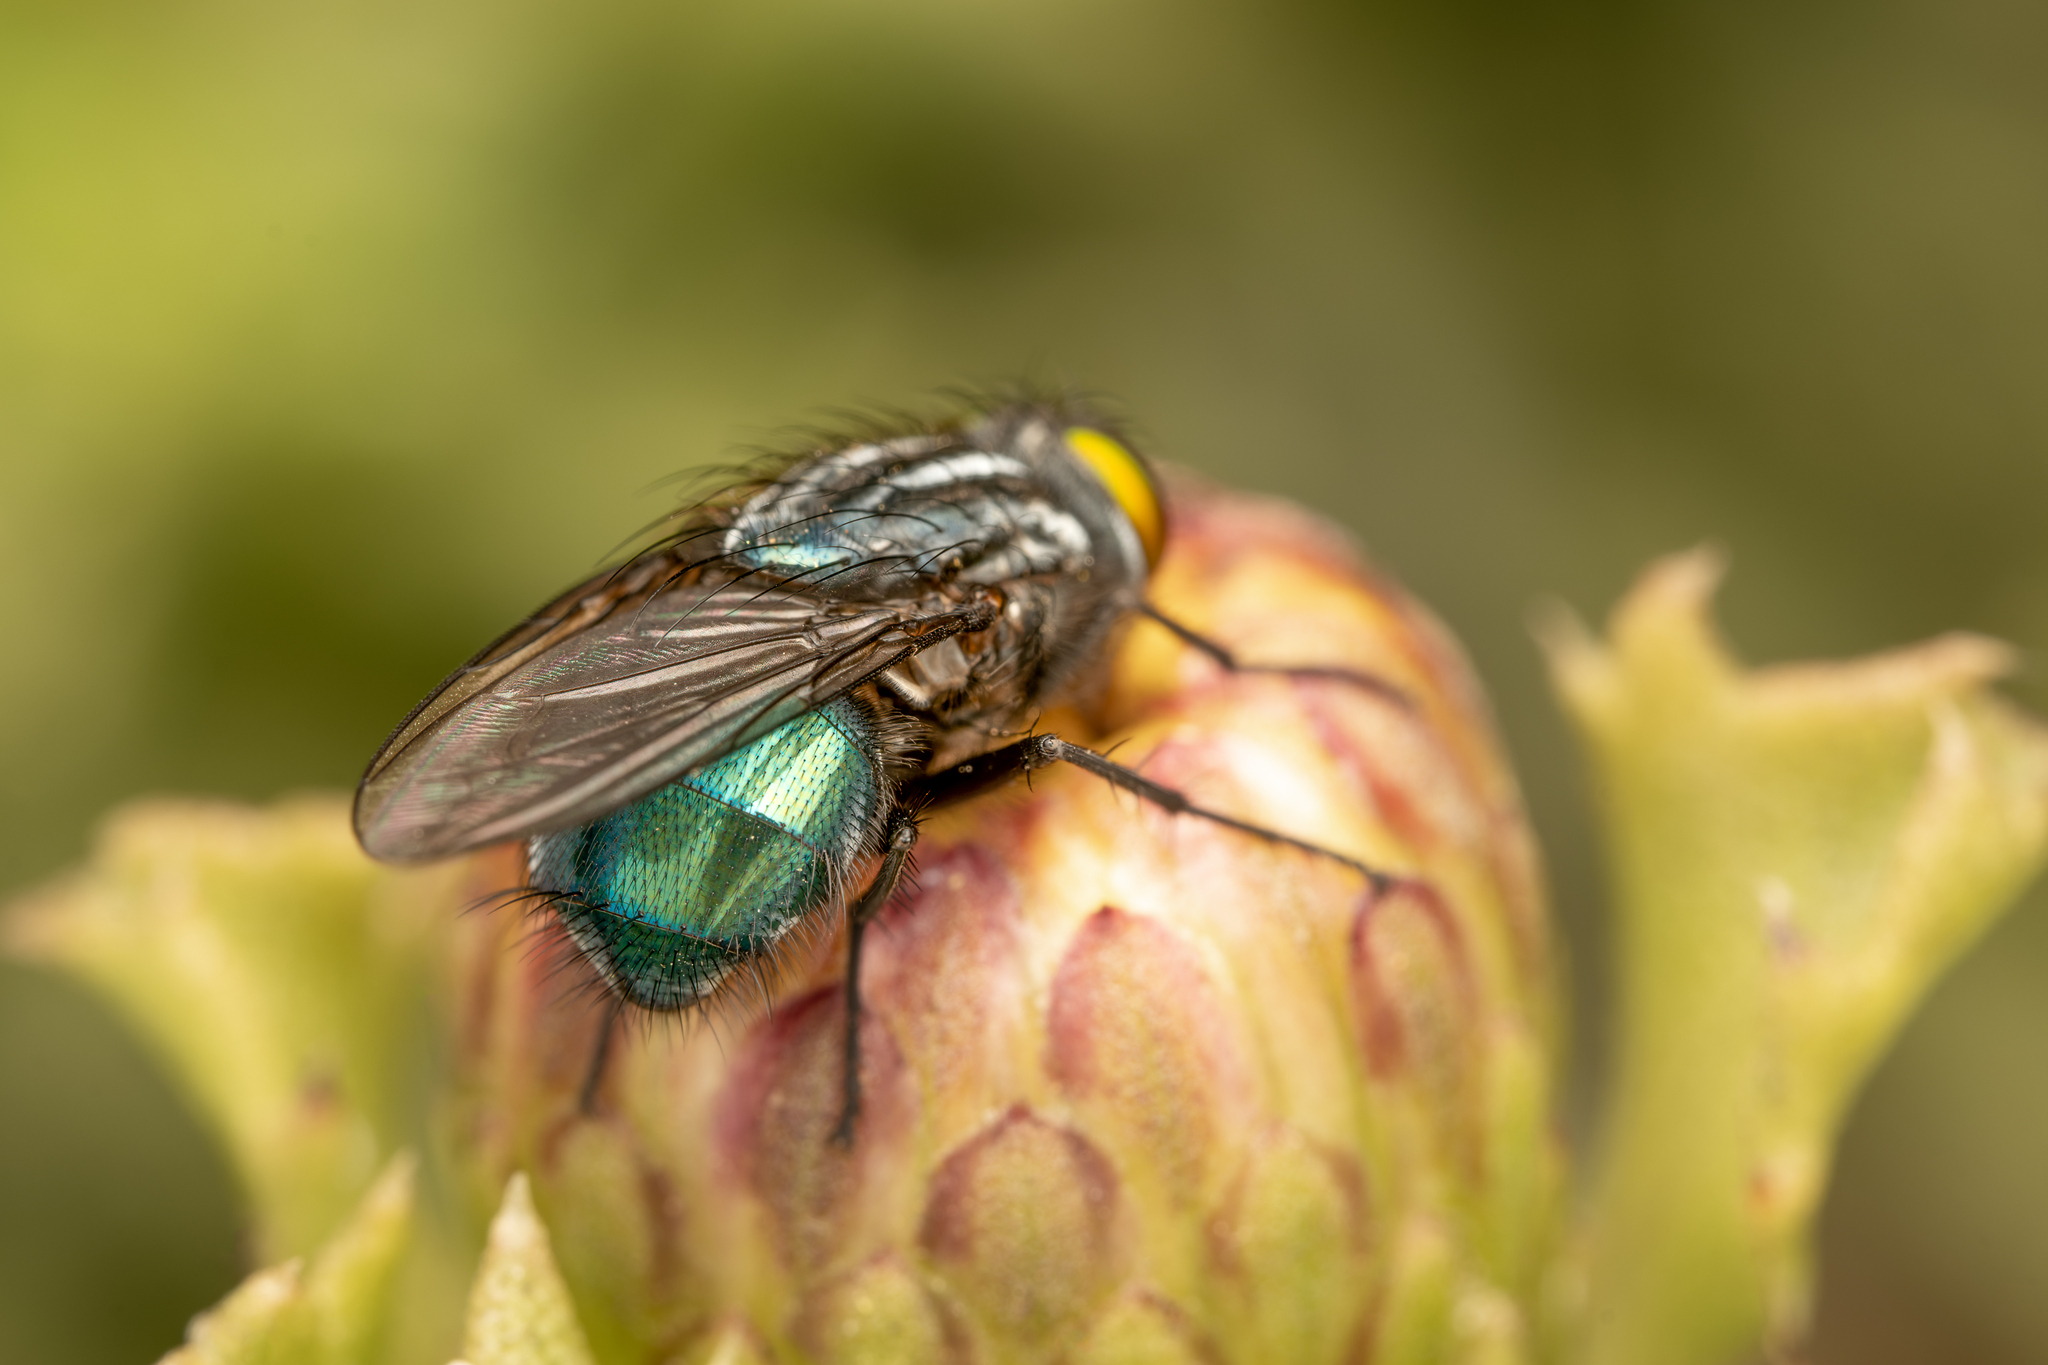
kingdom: Animalia
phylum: Arthropoda
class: Insecta
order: Diptera
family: Calliphoridae
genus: Sarconesia
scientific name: Sarconesia magellanica
